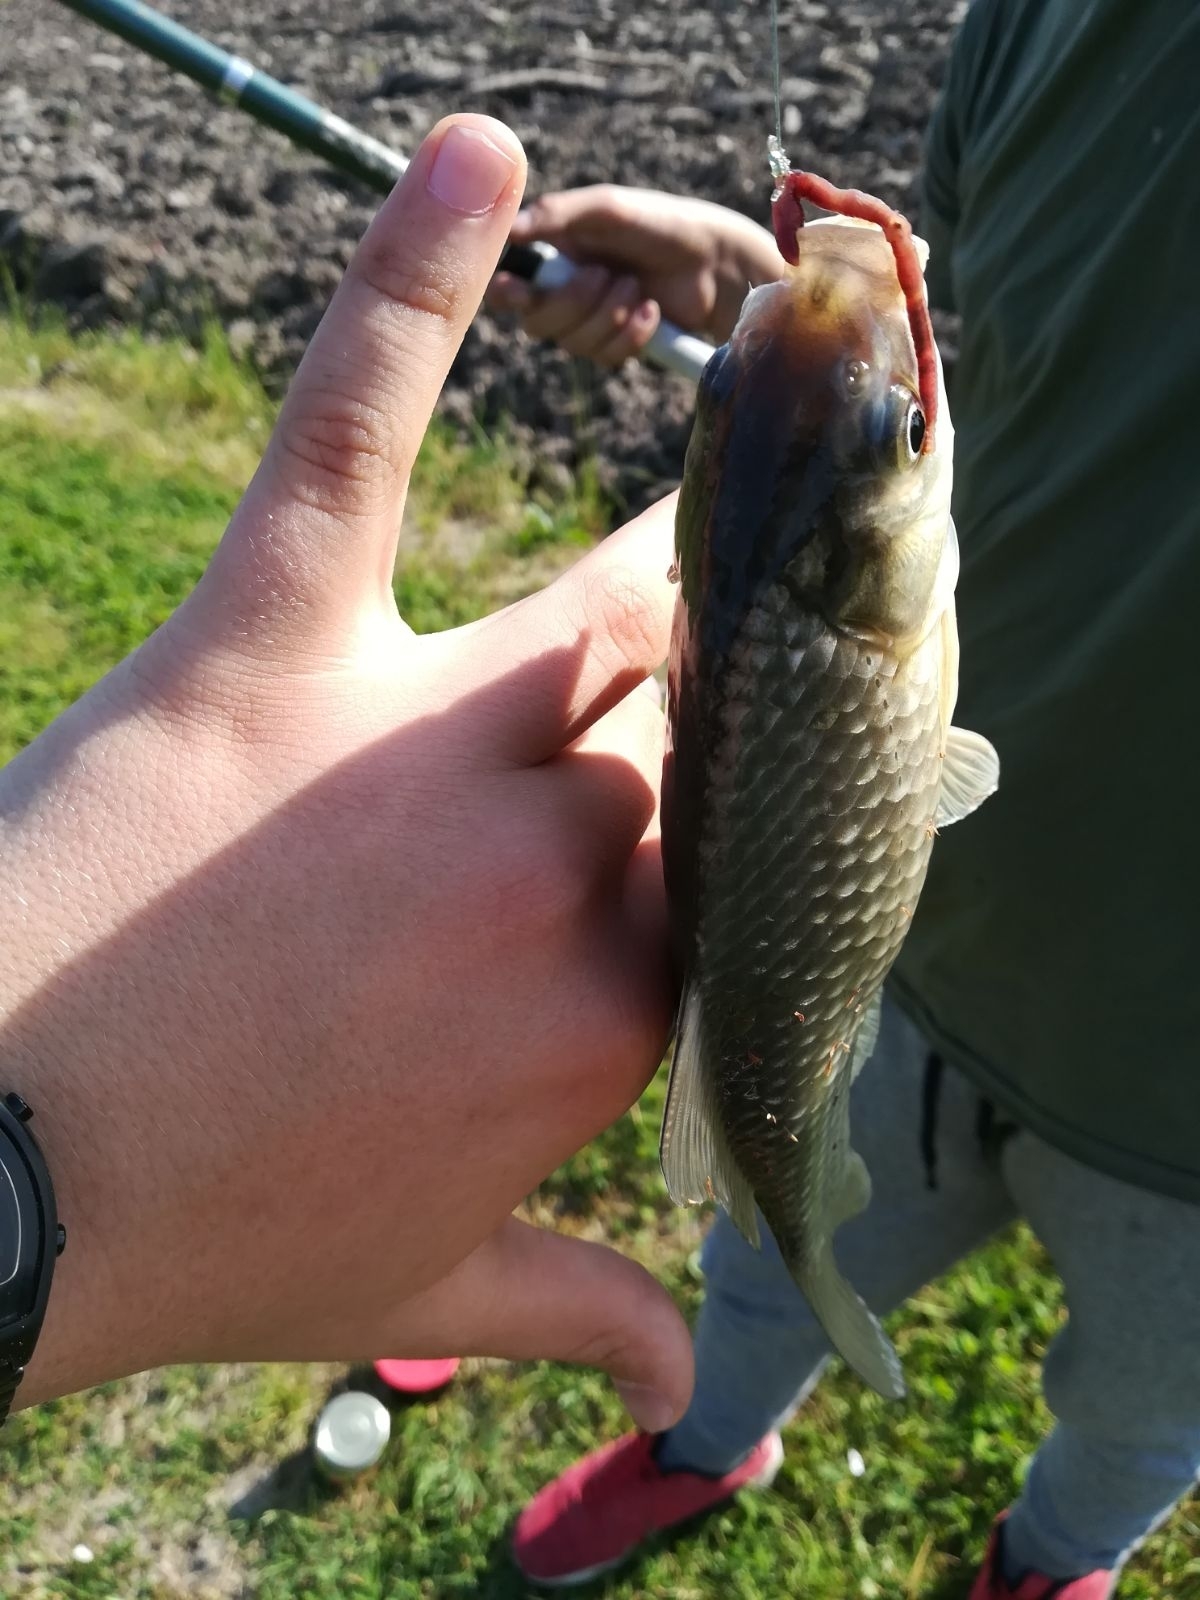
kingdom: Animalia
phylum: Chordata
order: Cypriniformes
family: Cyprinidae
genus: Carassius
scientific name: Carassius gibelio
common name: Prussian carp
